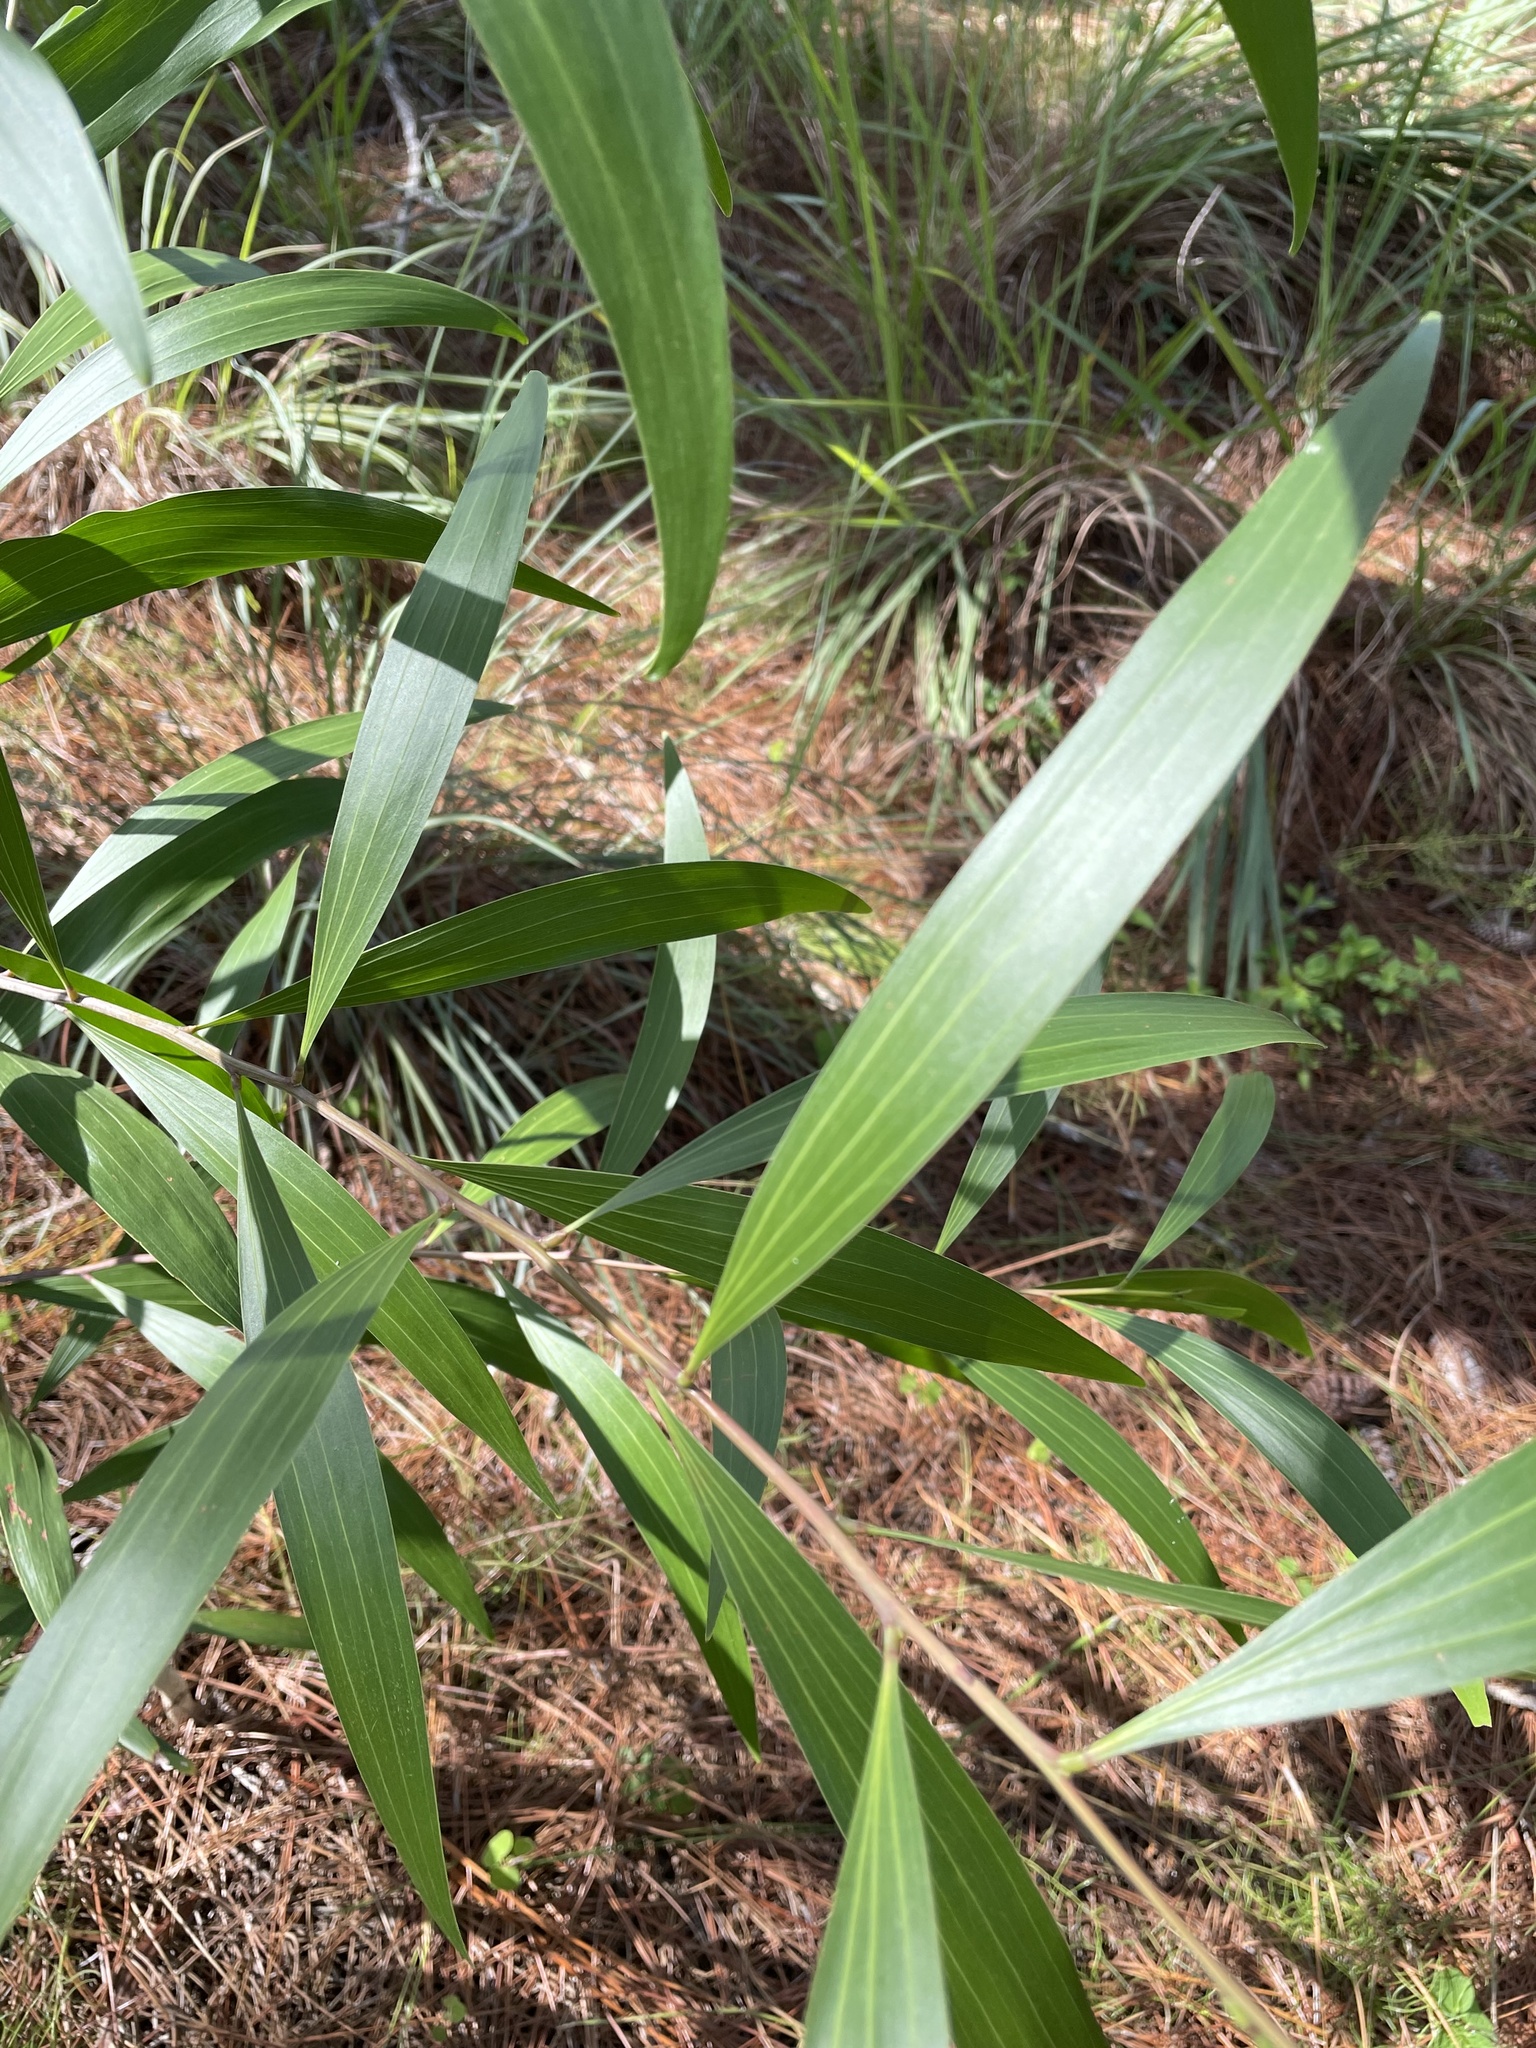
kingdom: Plantae
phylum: Tracheophyta
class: Magnoliopsida
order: Fabales
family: Fabaceae
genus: Acacia
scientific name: Acacia auriculiformis
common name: Earleaf acacia
